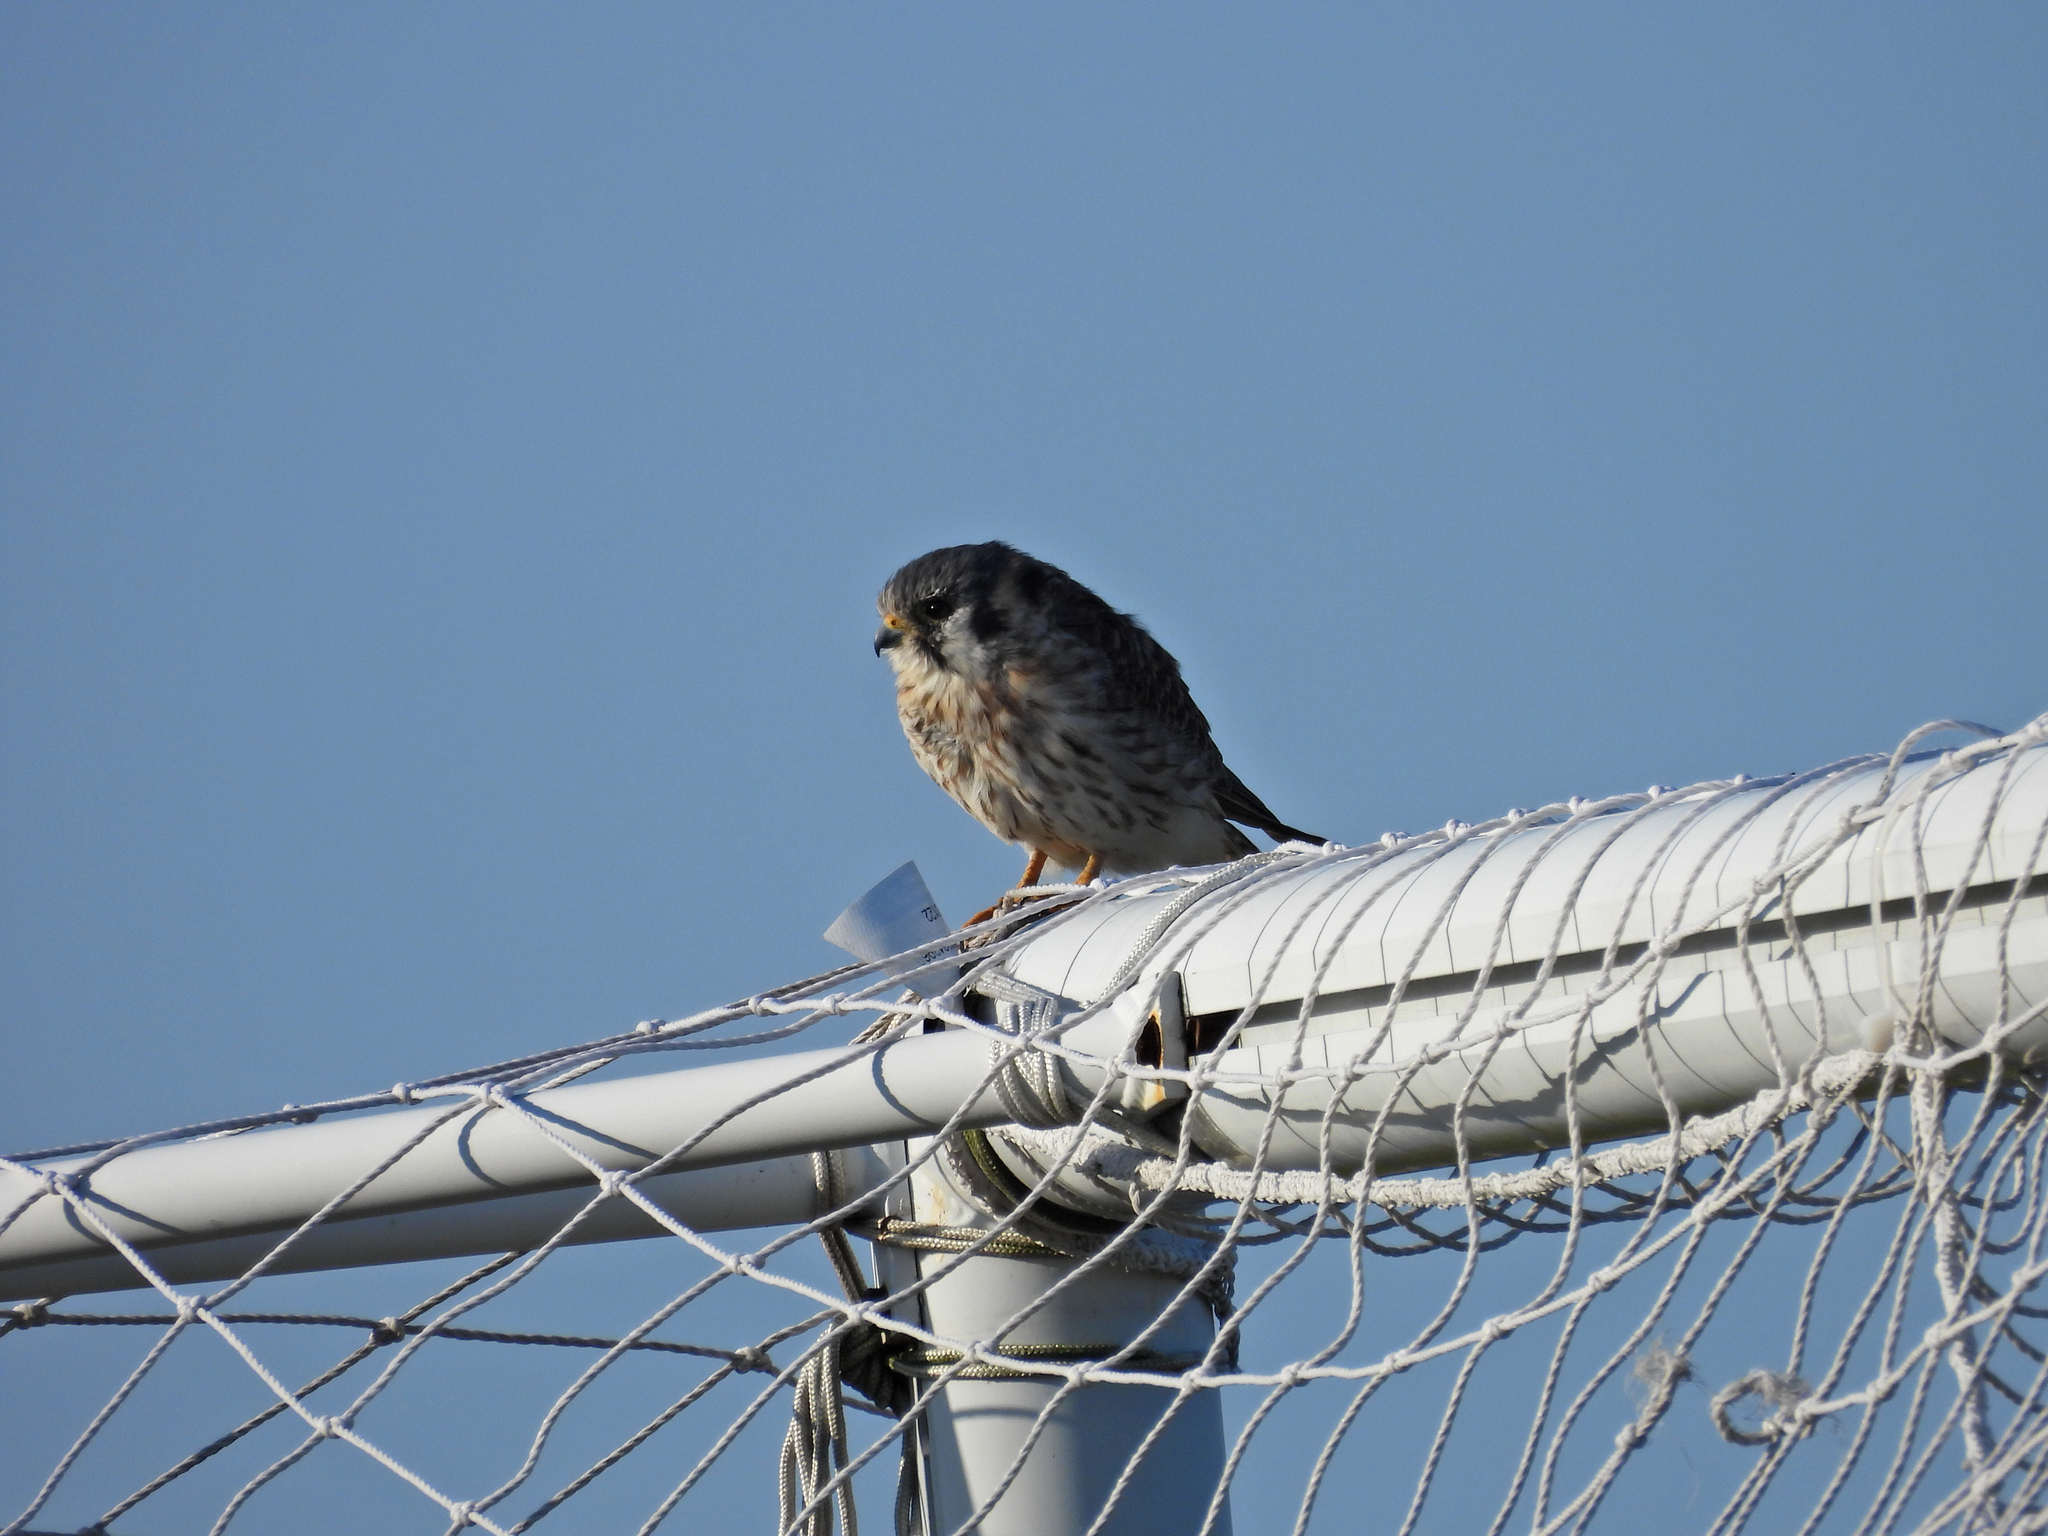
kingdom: Animalia
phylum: Chordata
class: Aves
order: Falconiformes
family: Falconidae
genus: Falco
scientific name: Falco sparverius
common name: American kestrel
